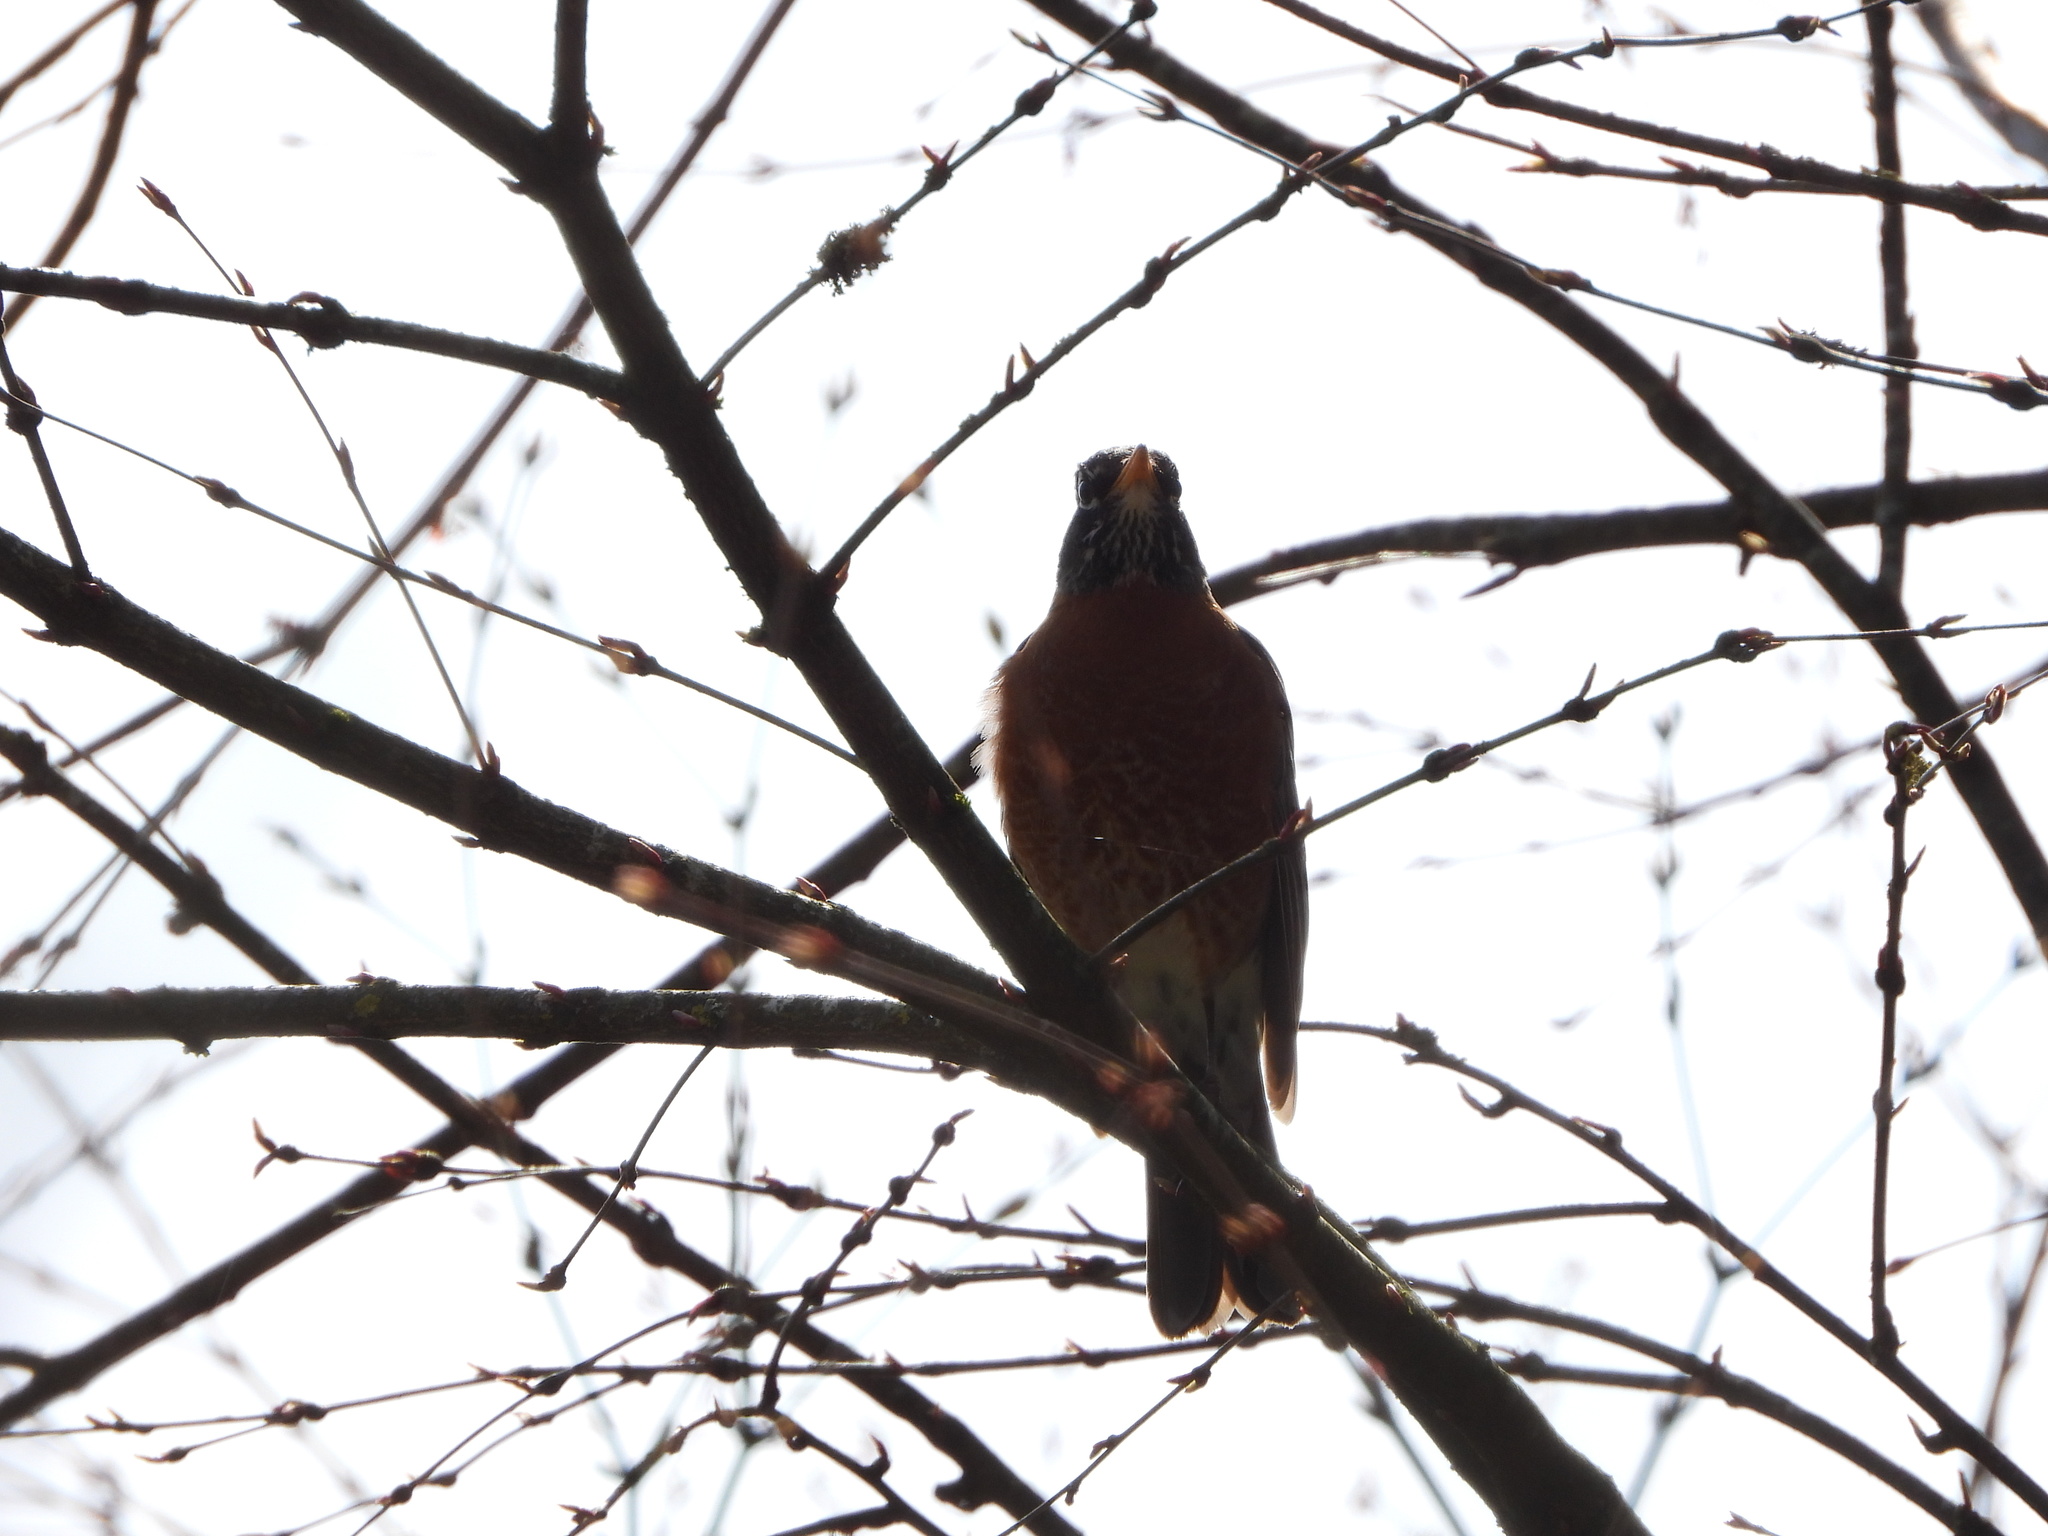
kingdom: Animalia
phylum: Chordata
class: Aves
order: Passeriformes
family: Turdidae
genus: Turdus
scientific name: Turdus migratorius
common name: American robin
